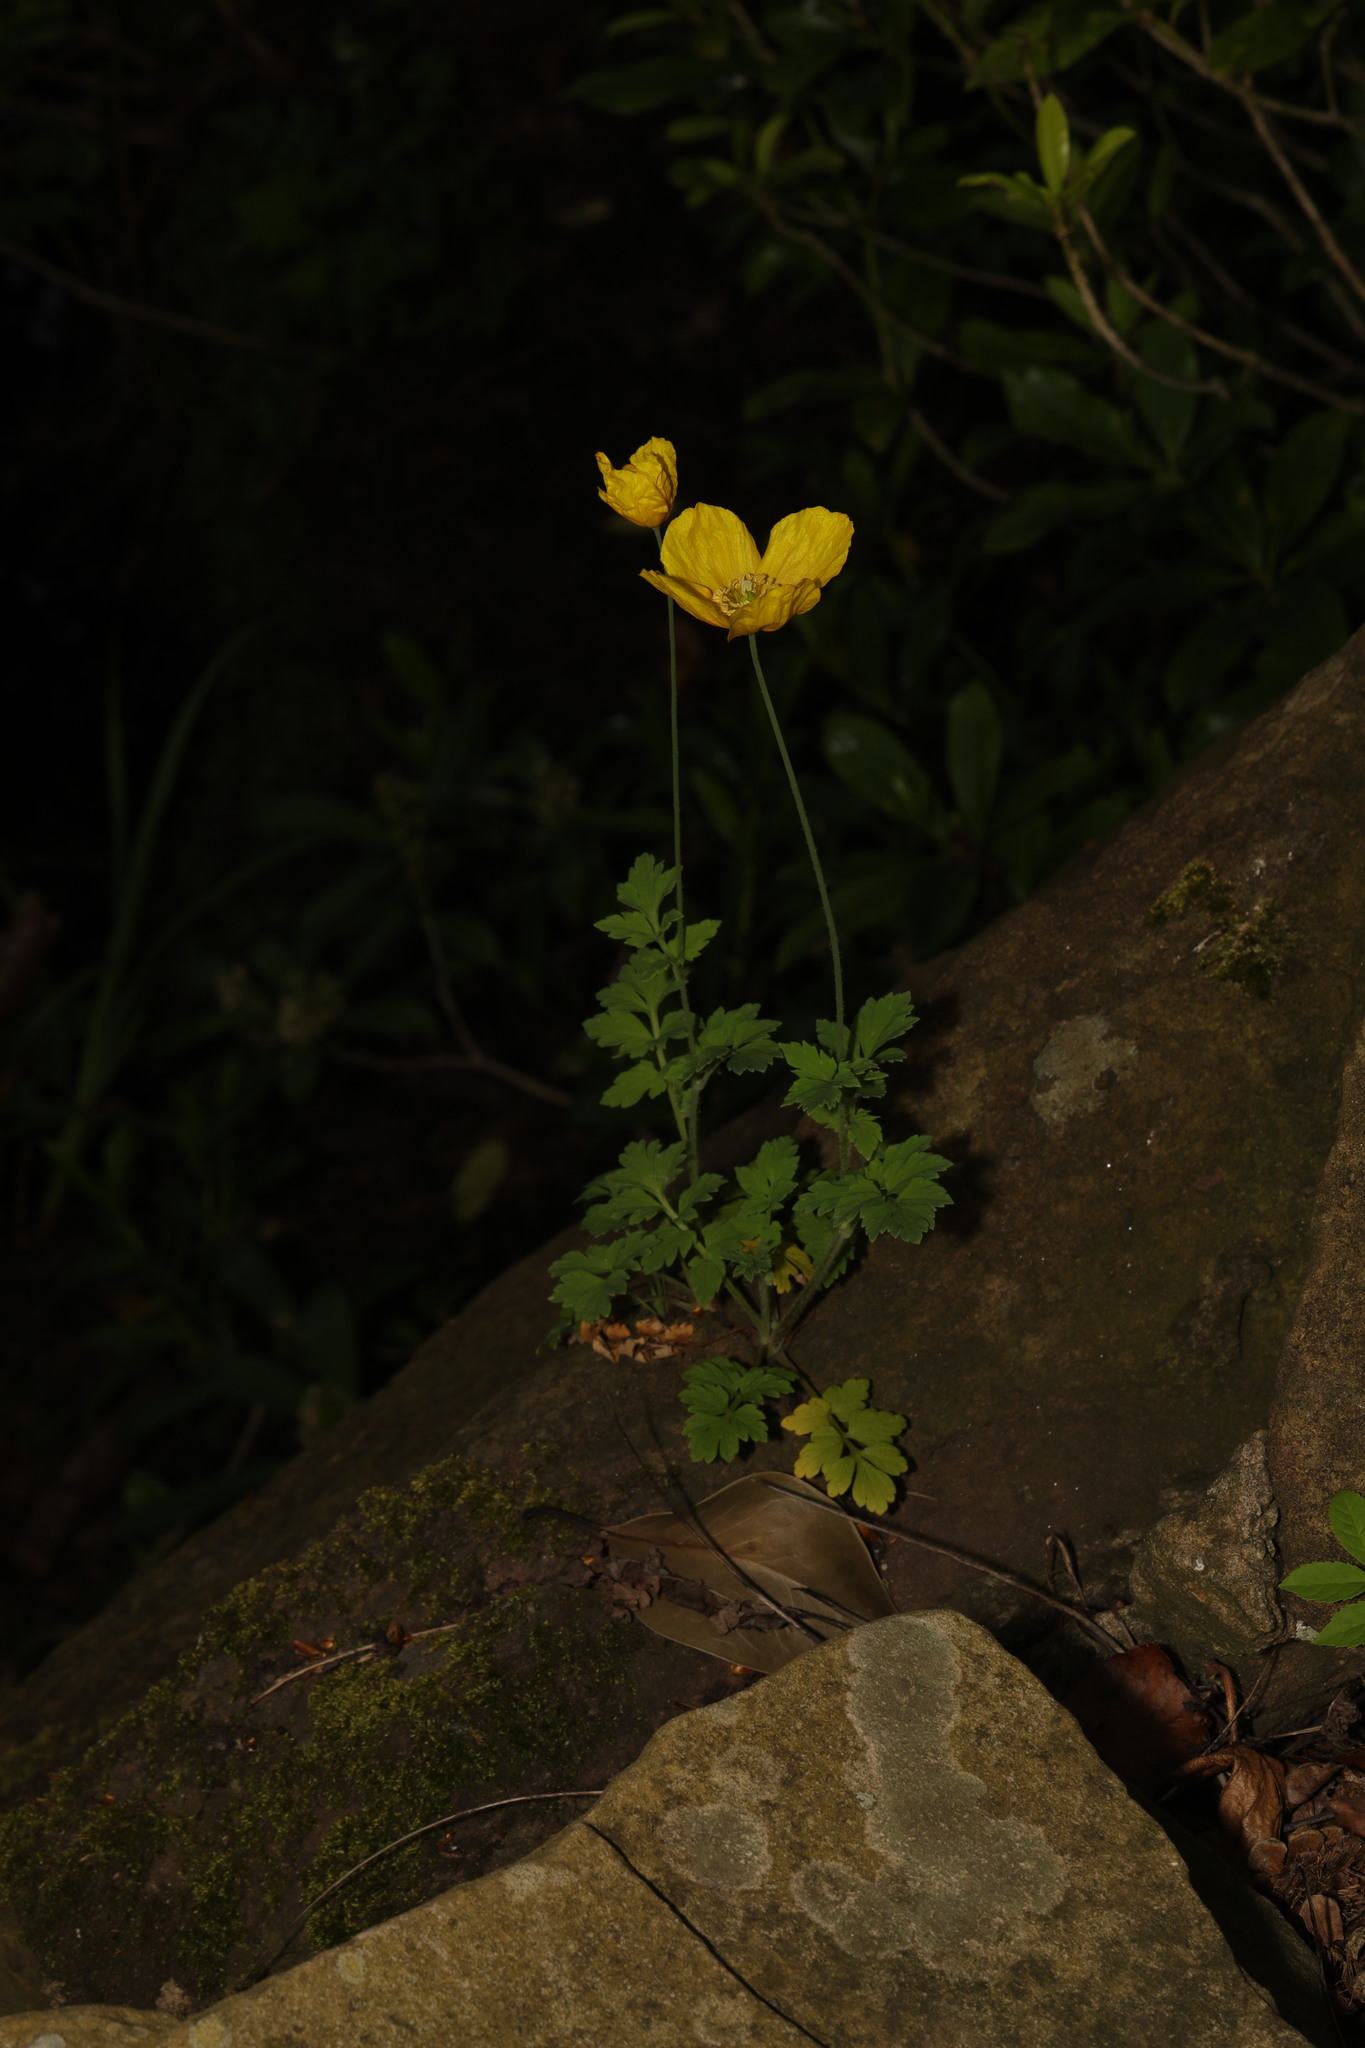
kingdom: Plantae
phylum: Tracheophyta
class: Magnoliopsida
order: Ranunculales
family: Papaveraceae
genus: Papaver
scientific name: Papaver cambricum
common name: Poppy
